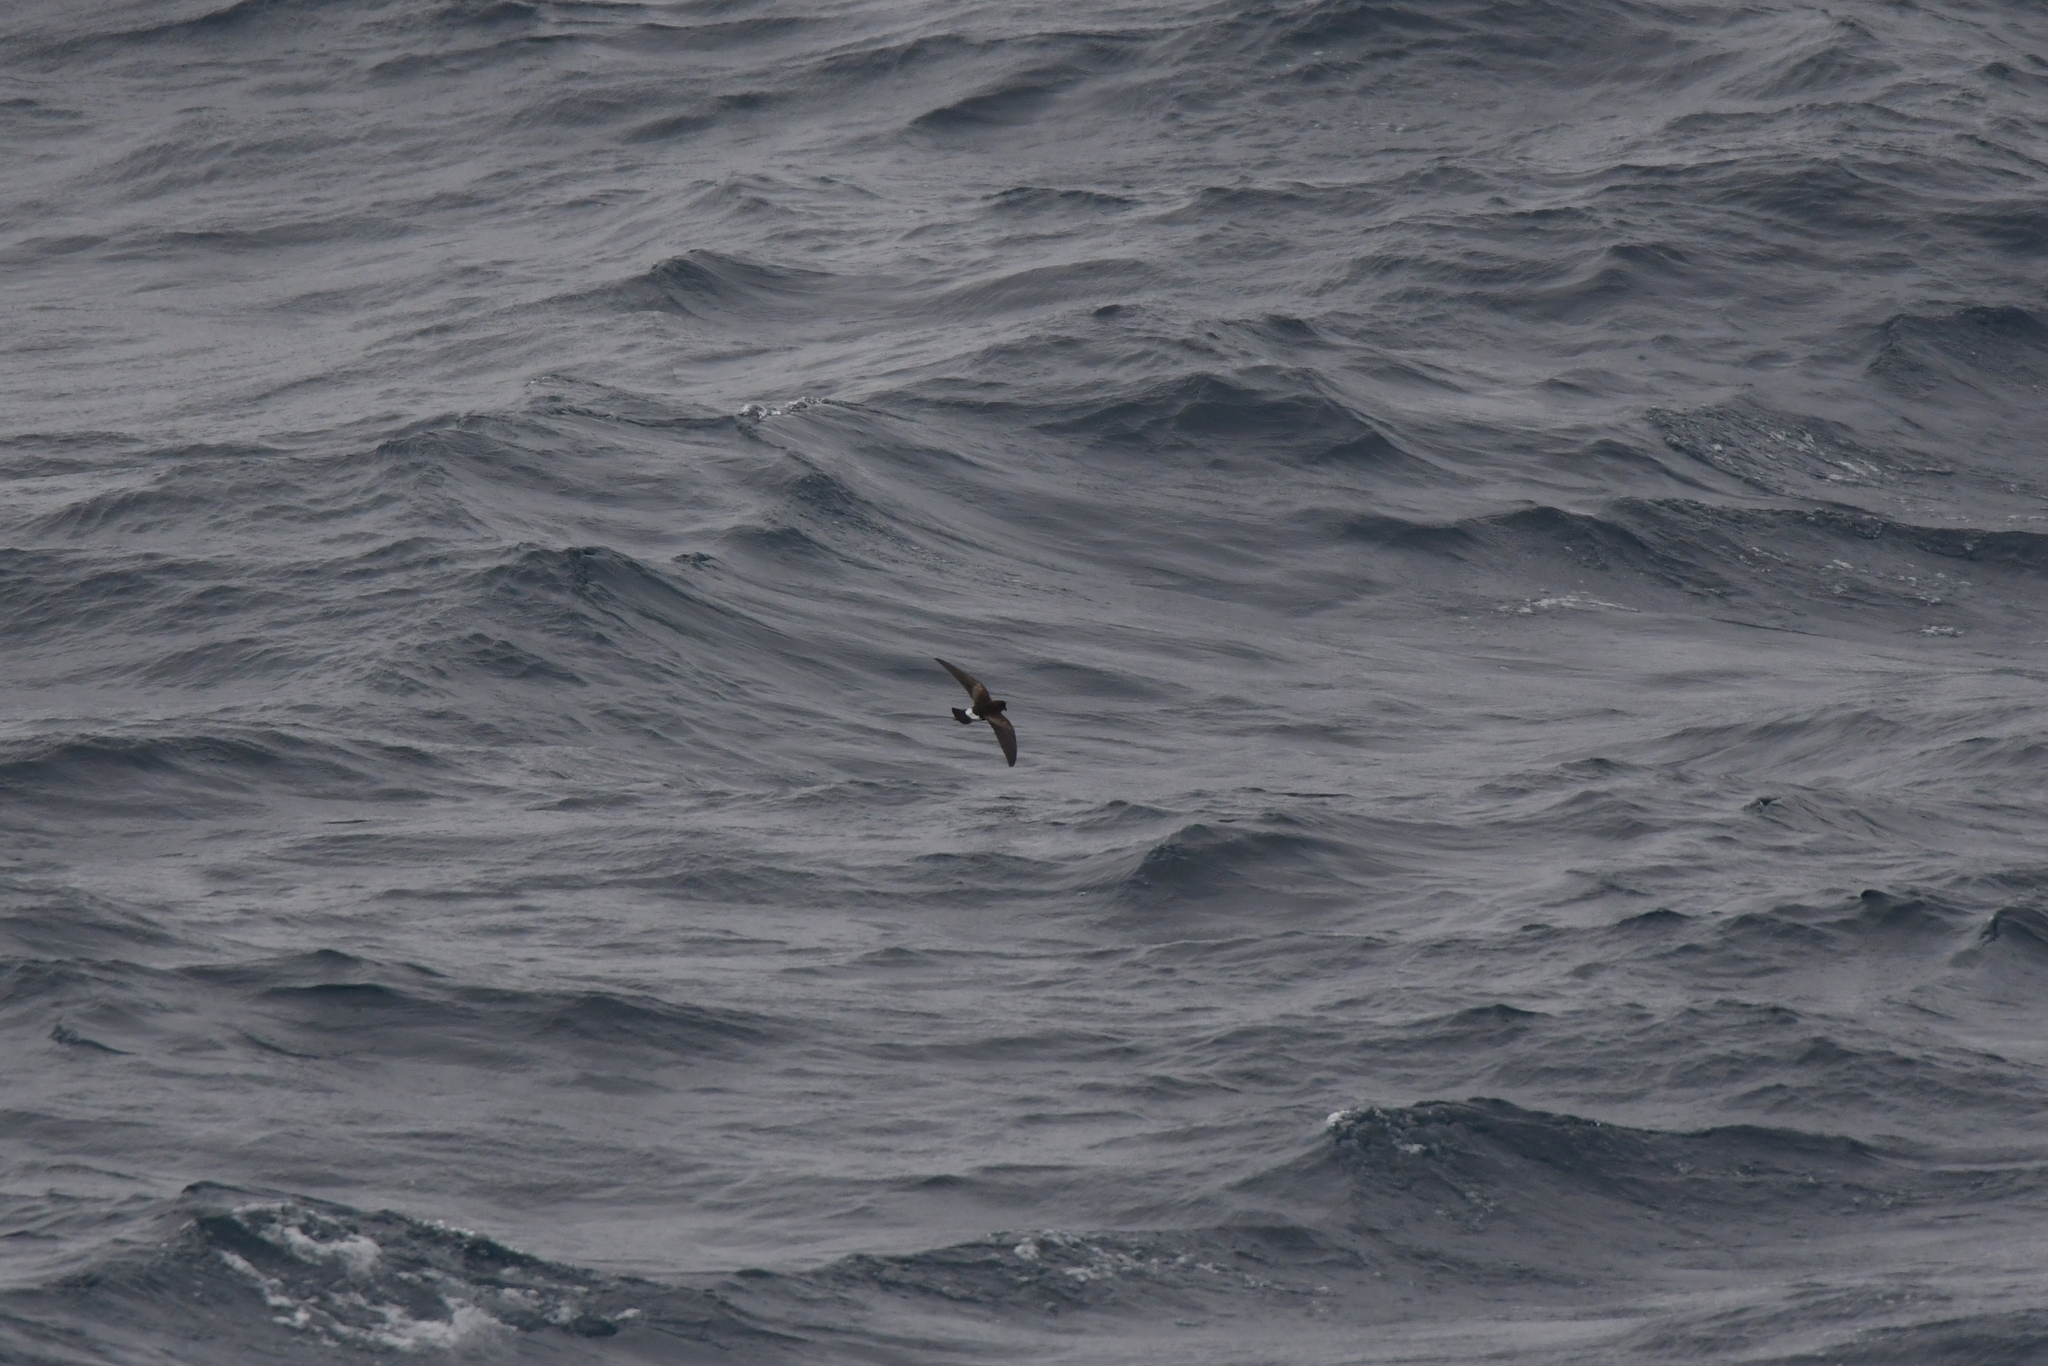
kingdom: Animalia
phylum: Chordata
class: Aves
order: Procellariiformes
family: Hydrobatidae
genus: Oceanites
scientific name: Oceanites oceanicus
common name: Wilson's storm petrel
